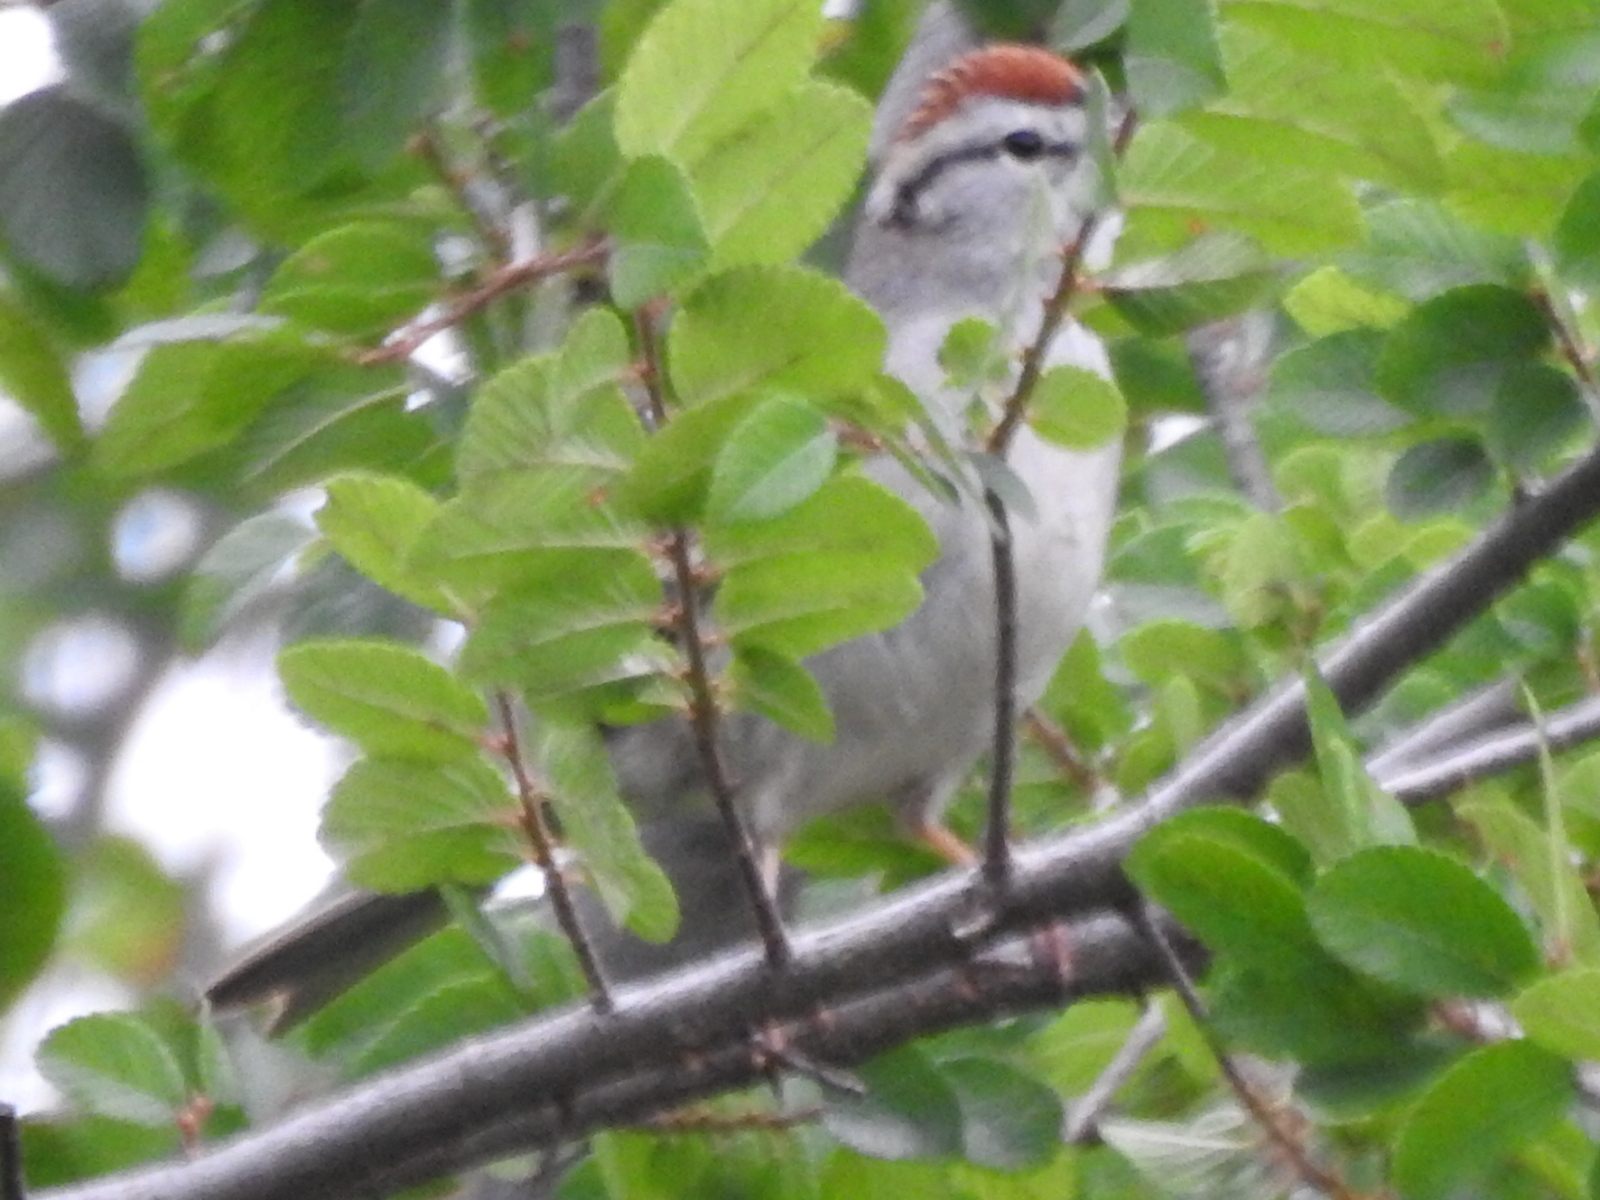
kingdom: Animalia
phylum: Chordata
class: Aves
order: Passeriformes
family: Passerellidae
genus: Spizella
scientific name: Spizella passerina
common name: Chipping sparrow
